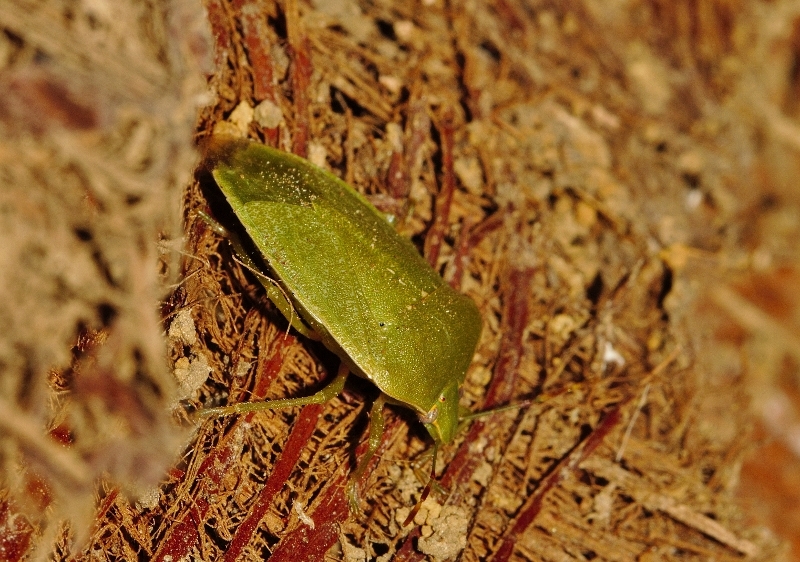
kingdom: Animalia
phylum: Arthropoda
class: Insecta
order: Hemiptera
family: Pentatomidae
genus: Nezara
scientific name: Nezara viridula
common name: Southern green stink bug
